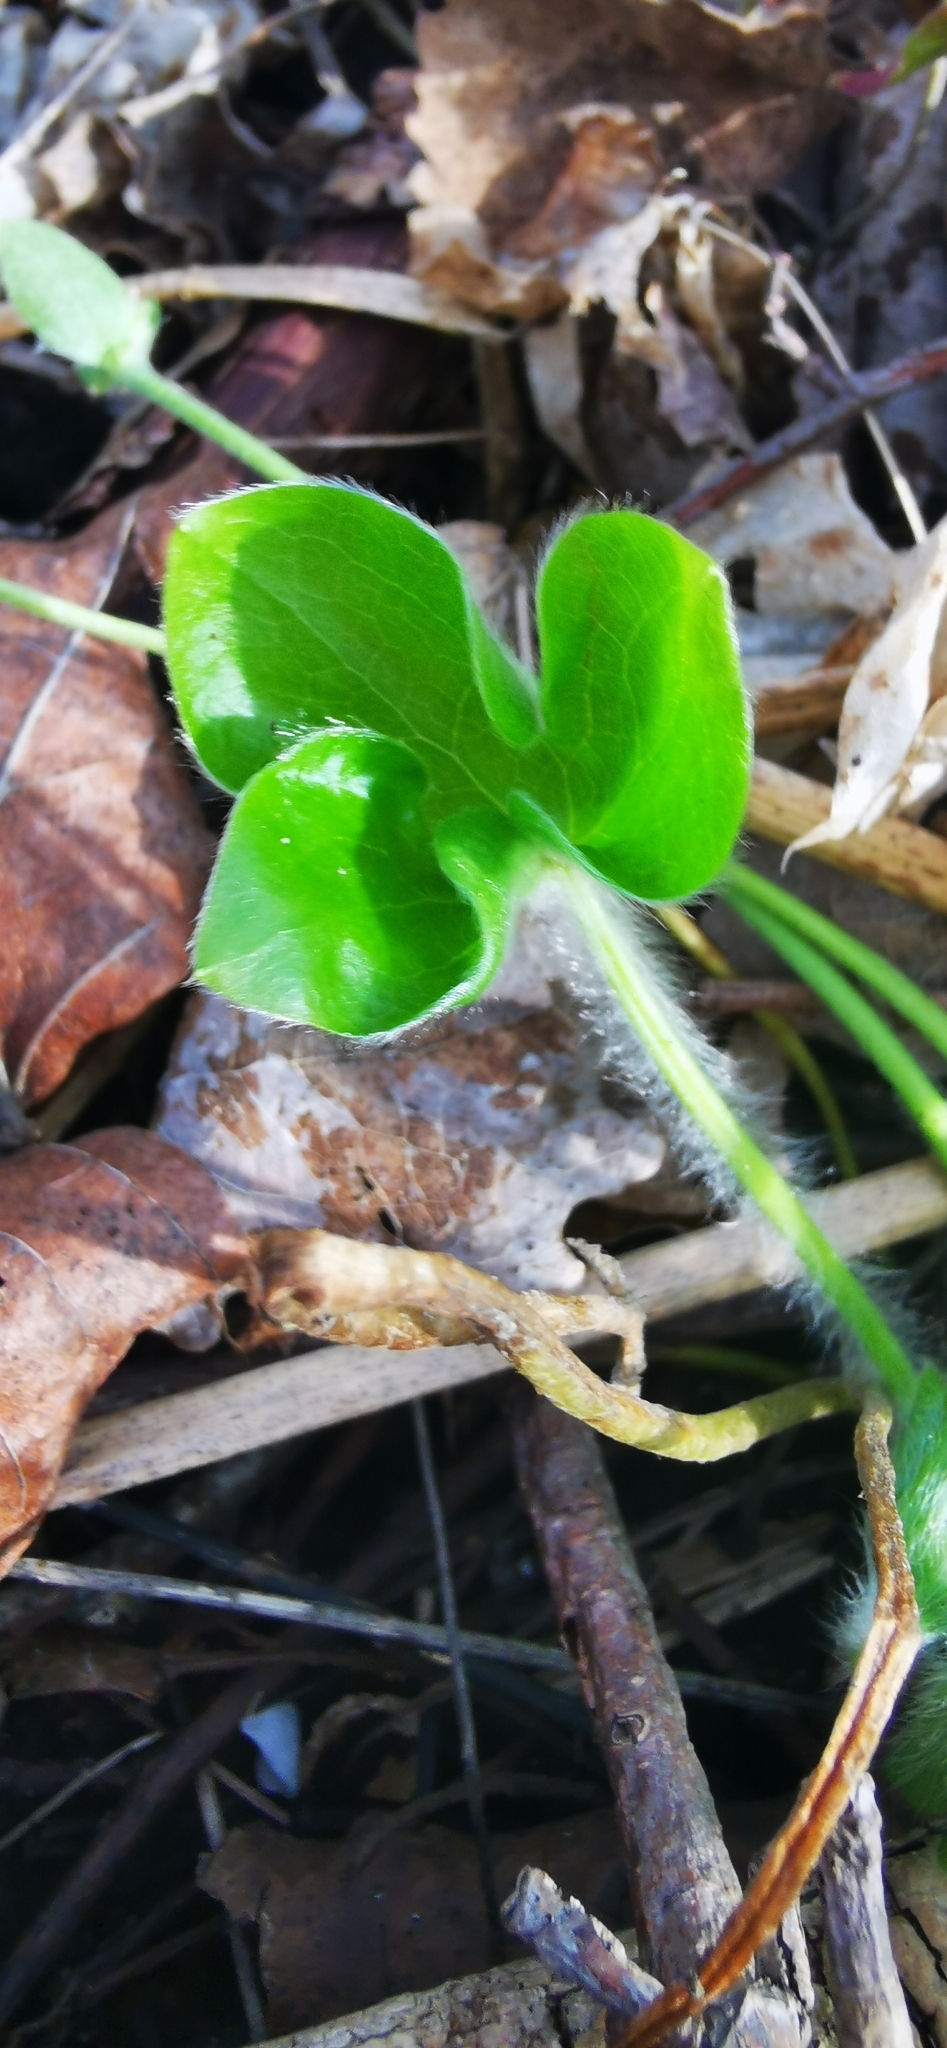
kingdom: Plantae
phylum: Tracheophyta
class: Magnoliopsida
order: Ranunculales
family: Ranunculaceae
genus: Hepatica
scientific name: Hepatica nobilis
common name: Liverleaf
